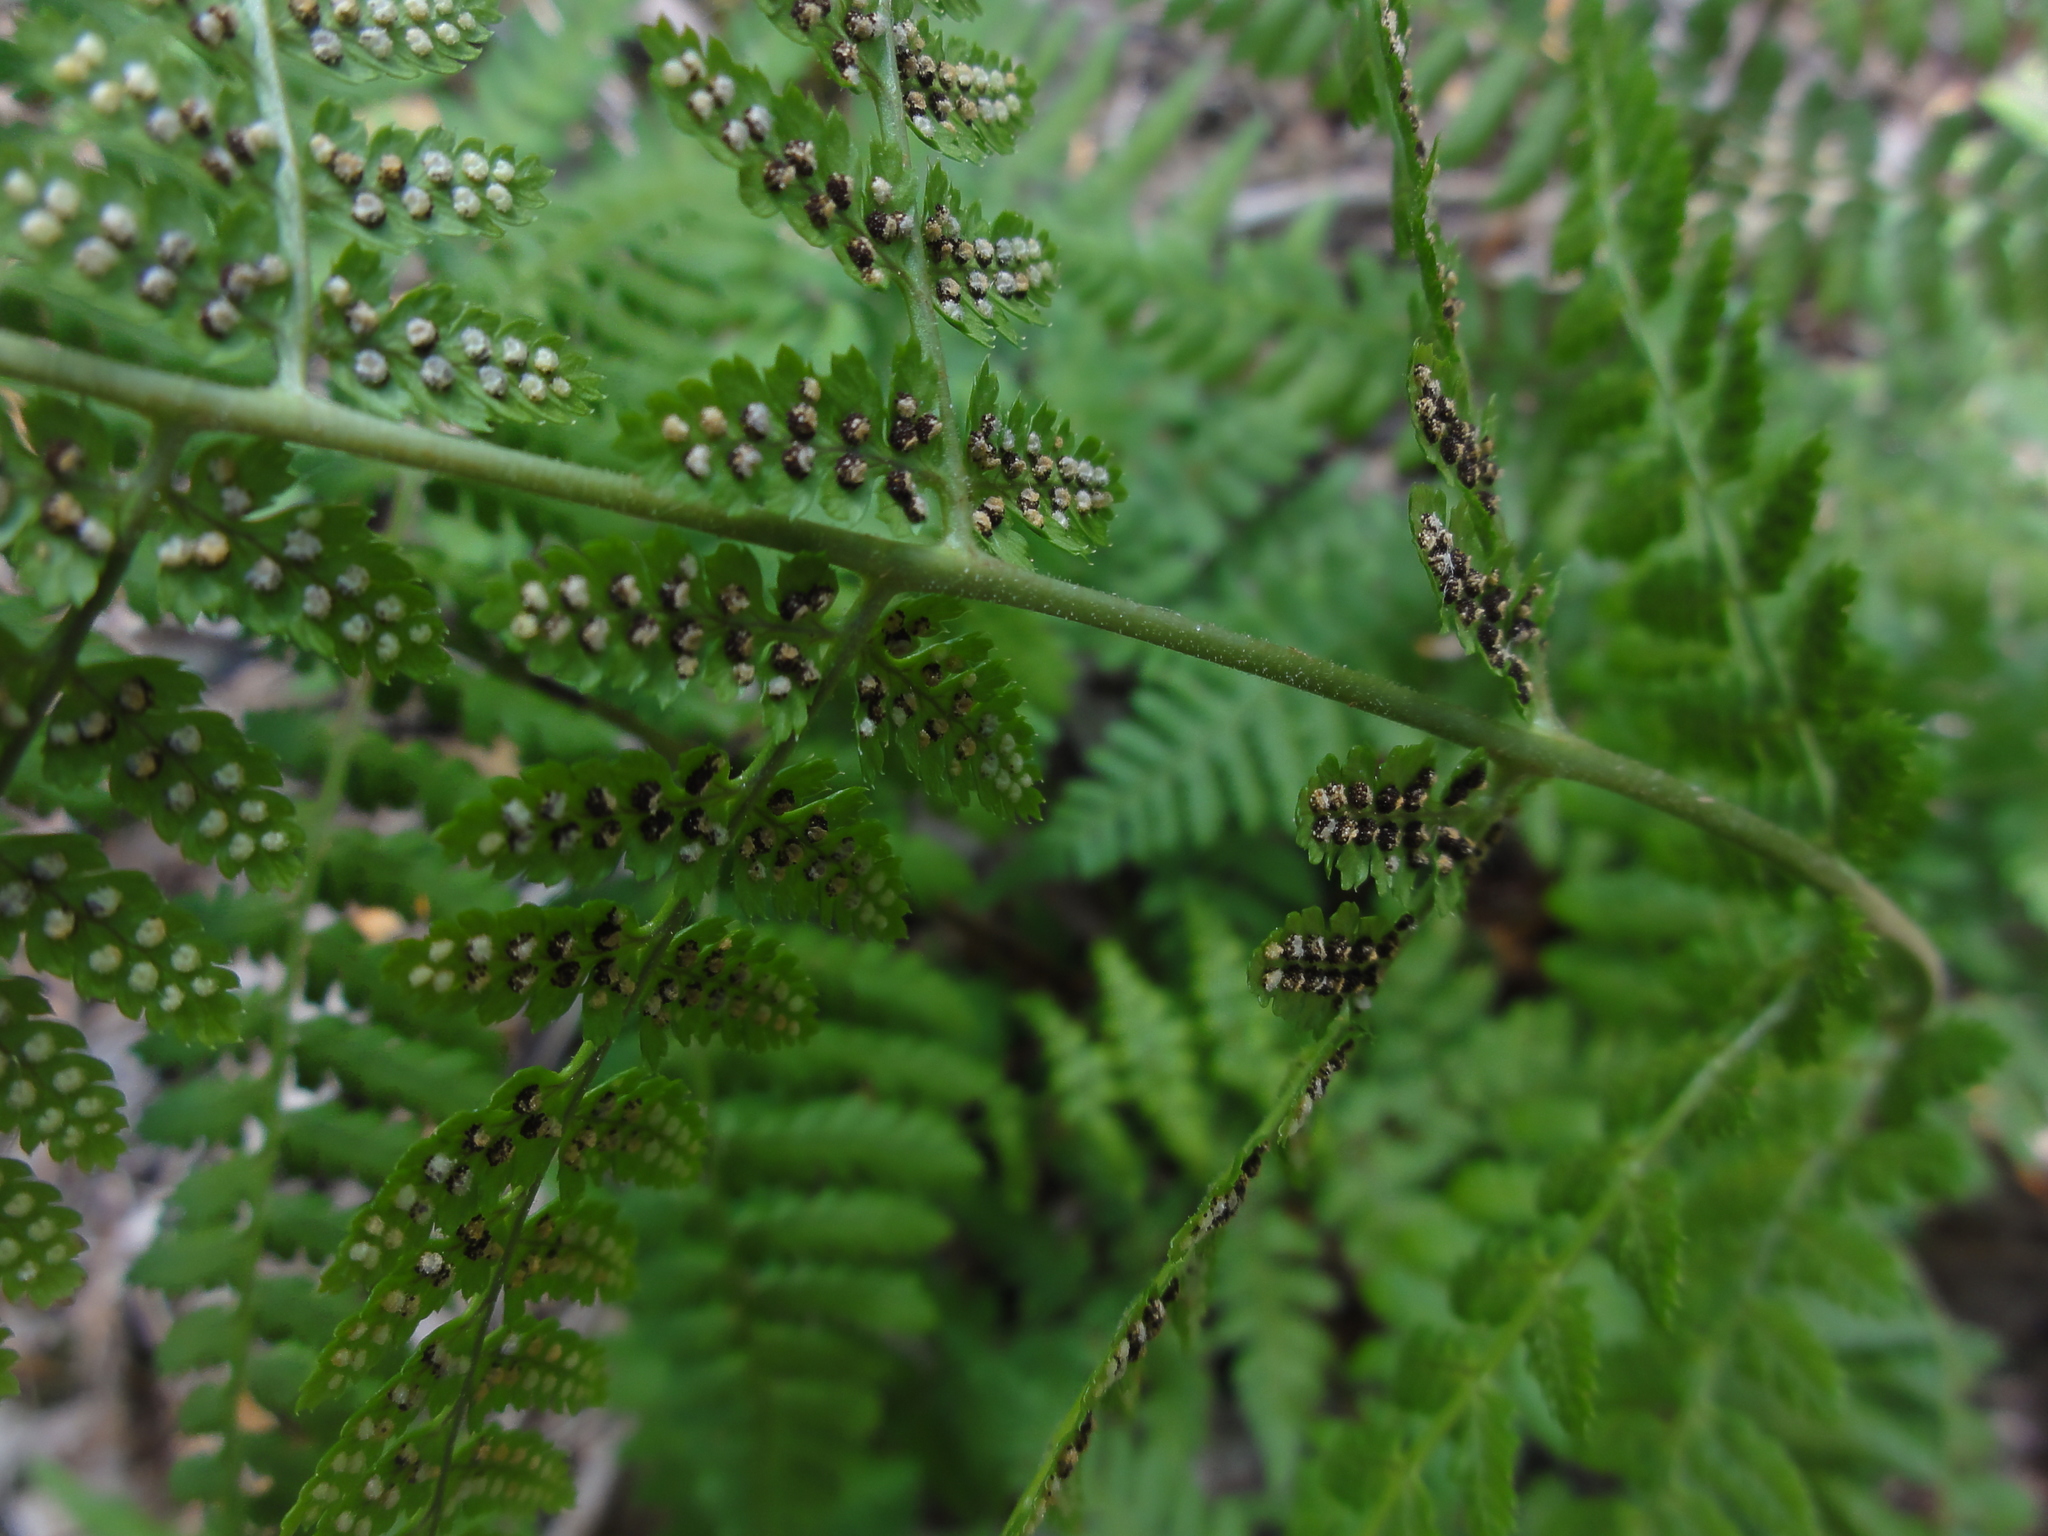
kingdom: Plantae
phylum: Tracheophyta
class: Polypodiopsida
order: Polypodiales
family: Dryopteridaceae
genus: Dryopteris
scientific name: Dryopteris intermedia
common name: Evergreen wood fern
